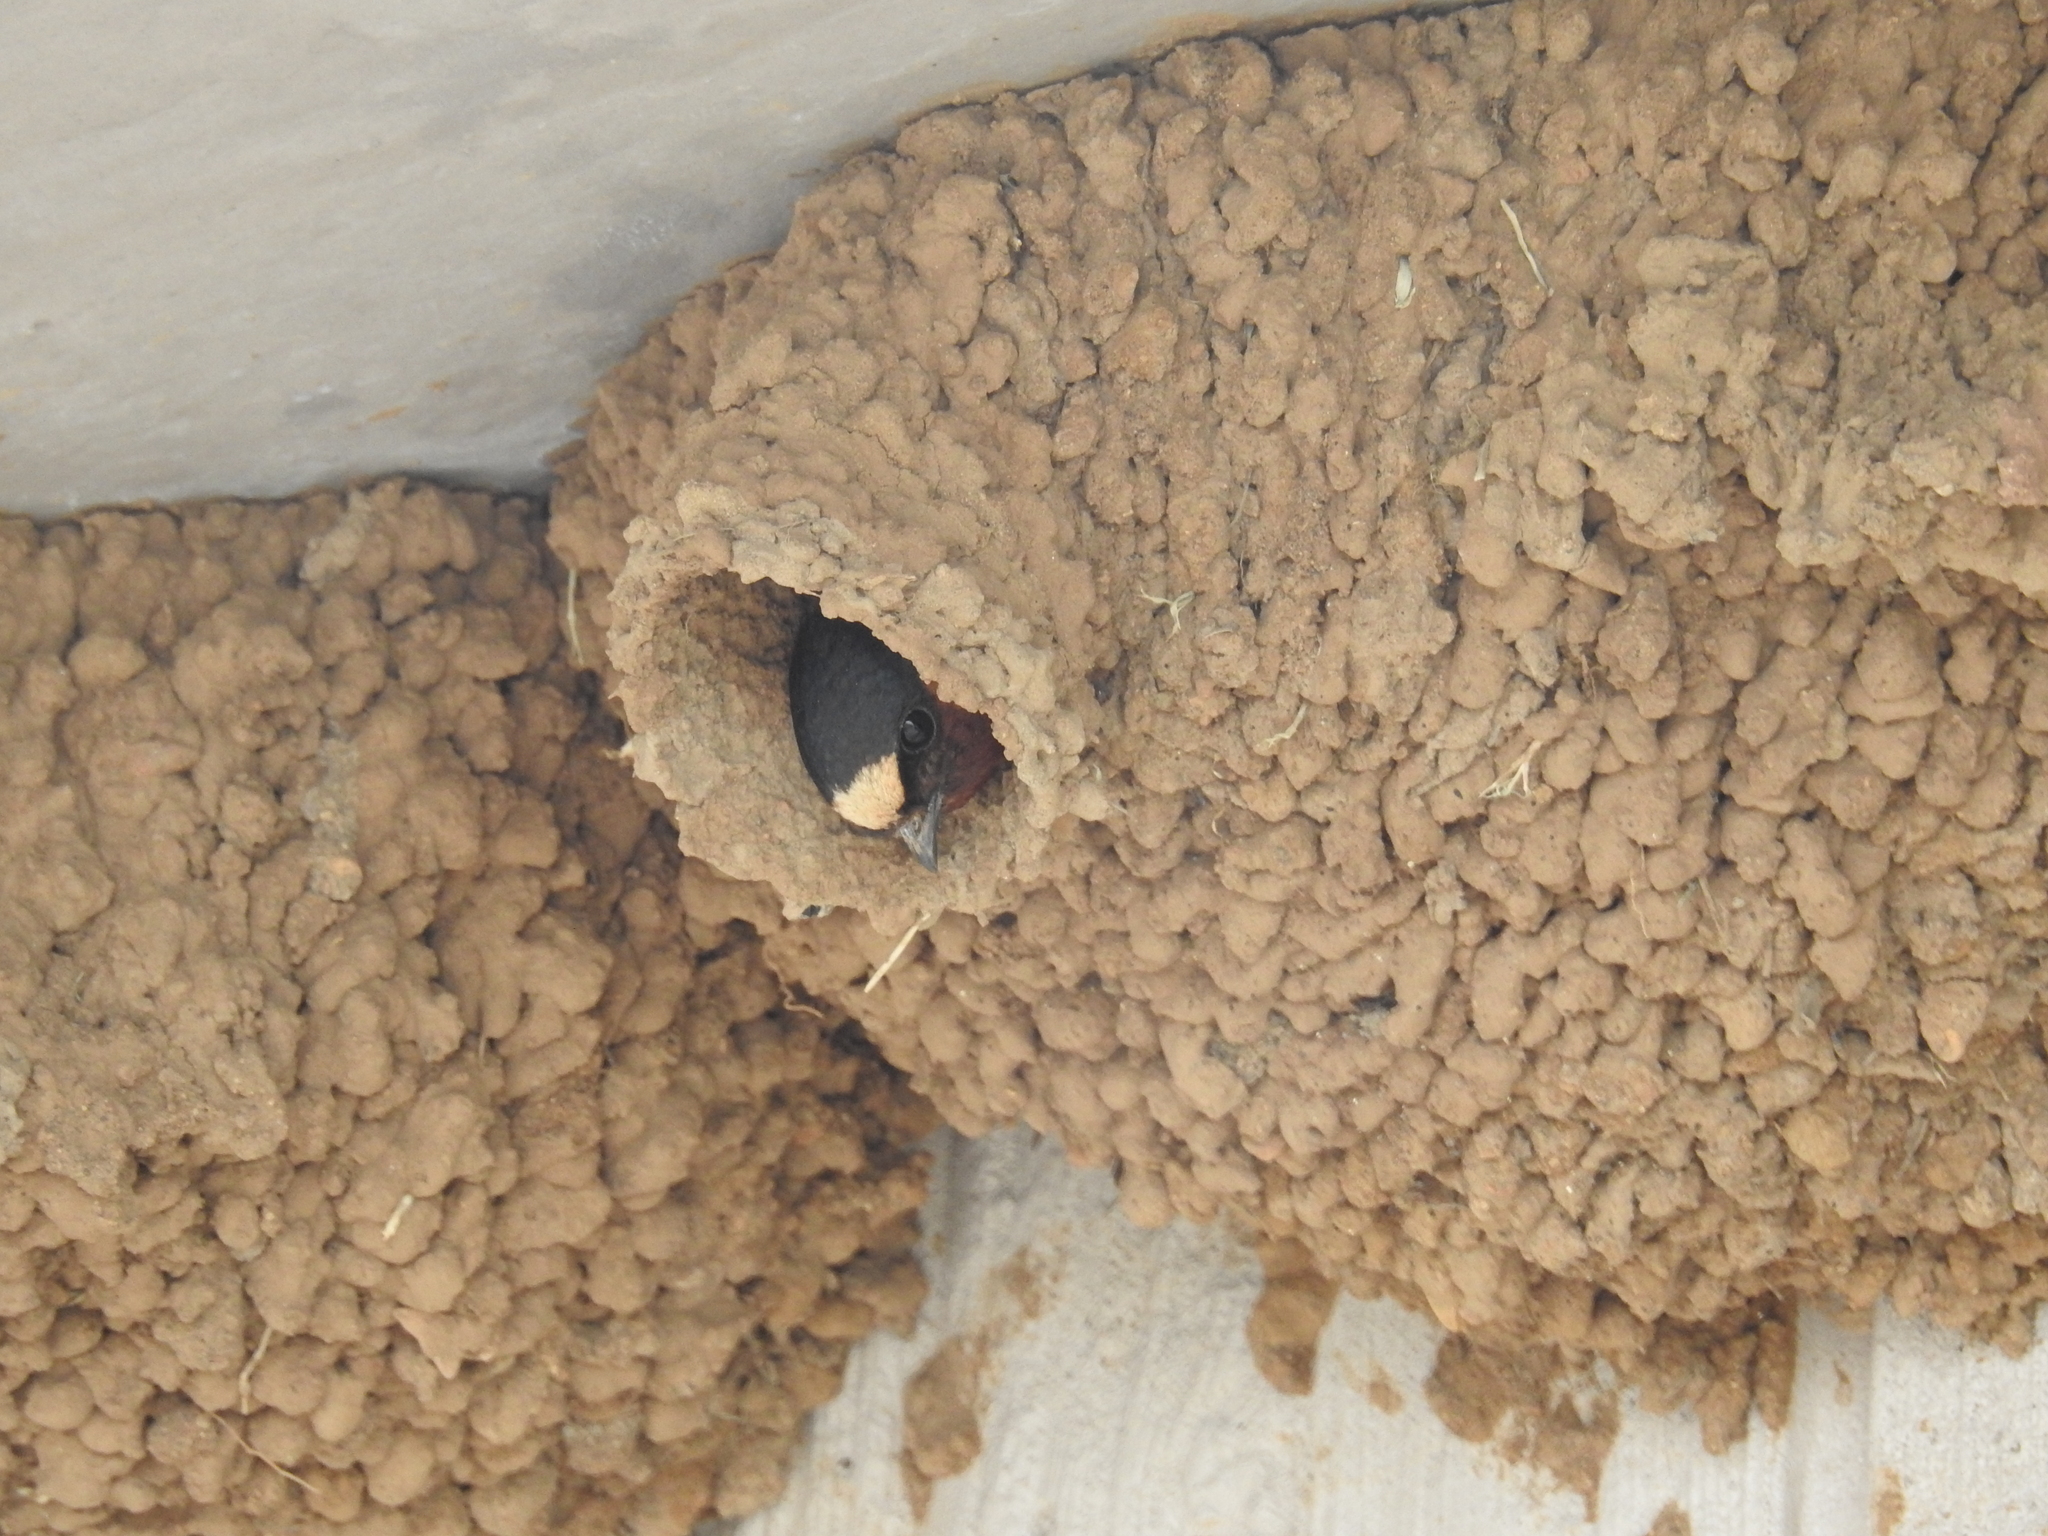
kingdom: Animalia
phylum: Chordata
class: Aves
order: Passeriformes
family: Hirundinidae
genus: Petrochelidon
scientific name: Petrochelidon pyrrhonota
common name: American cliff swallow
